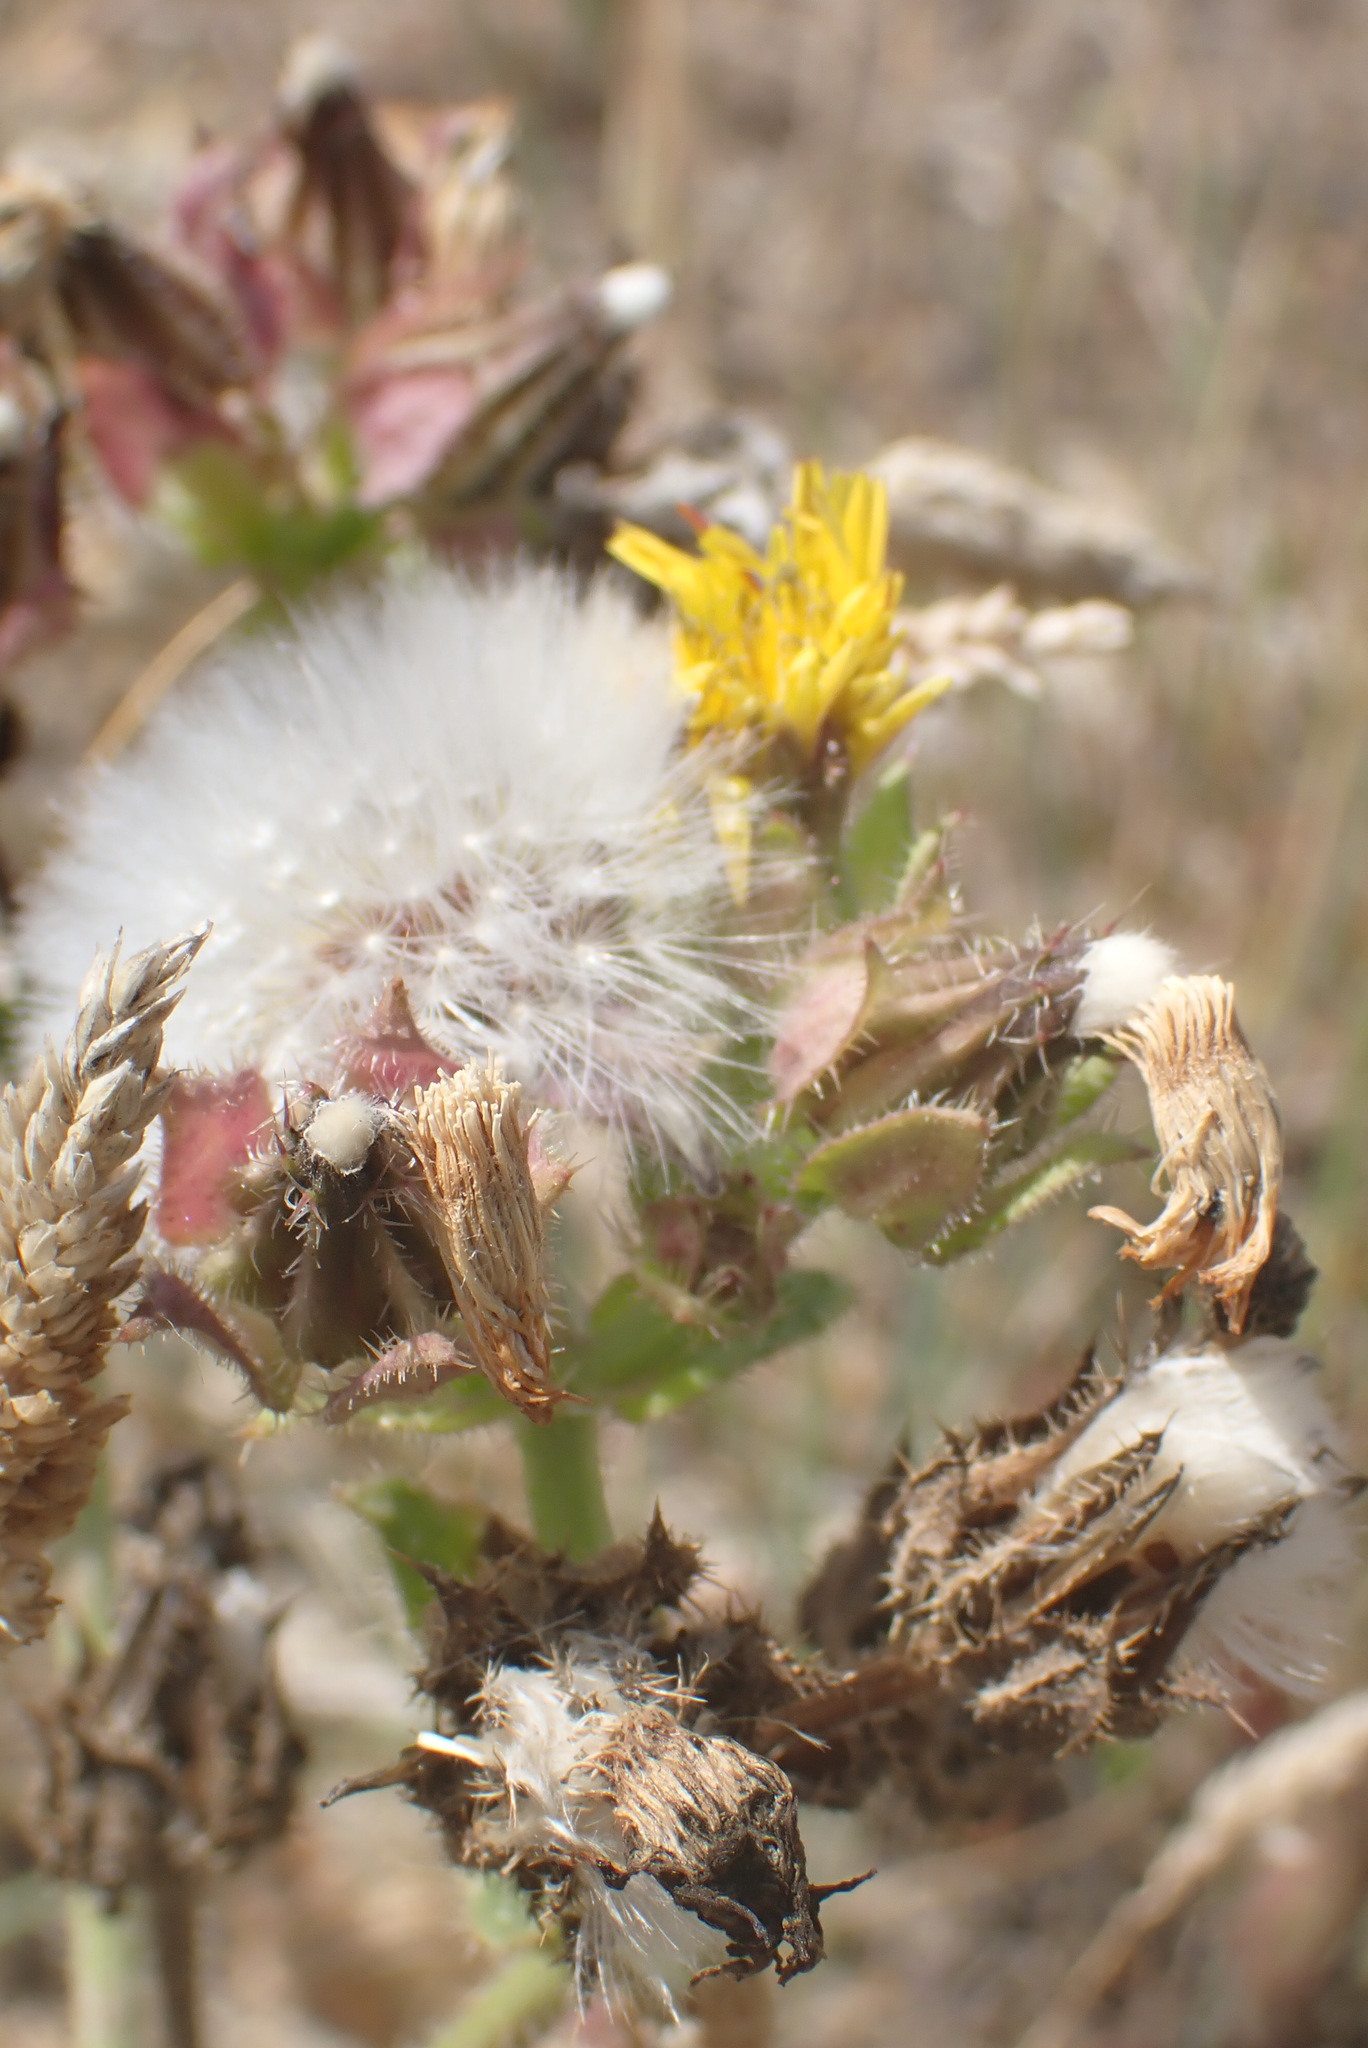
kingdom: Plantae
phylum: Tracheophyta
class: Magnoliopsida
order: Asterales
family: Asteraceae
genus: Helminthotheca
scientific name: Helminthotheca echioides
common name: Ox-tongue
